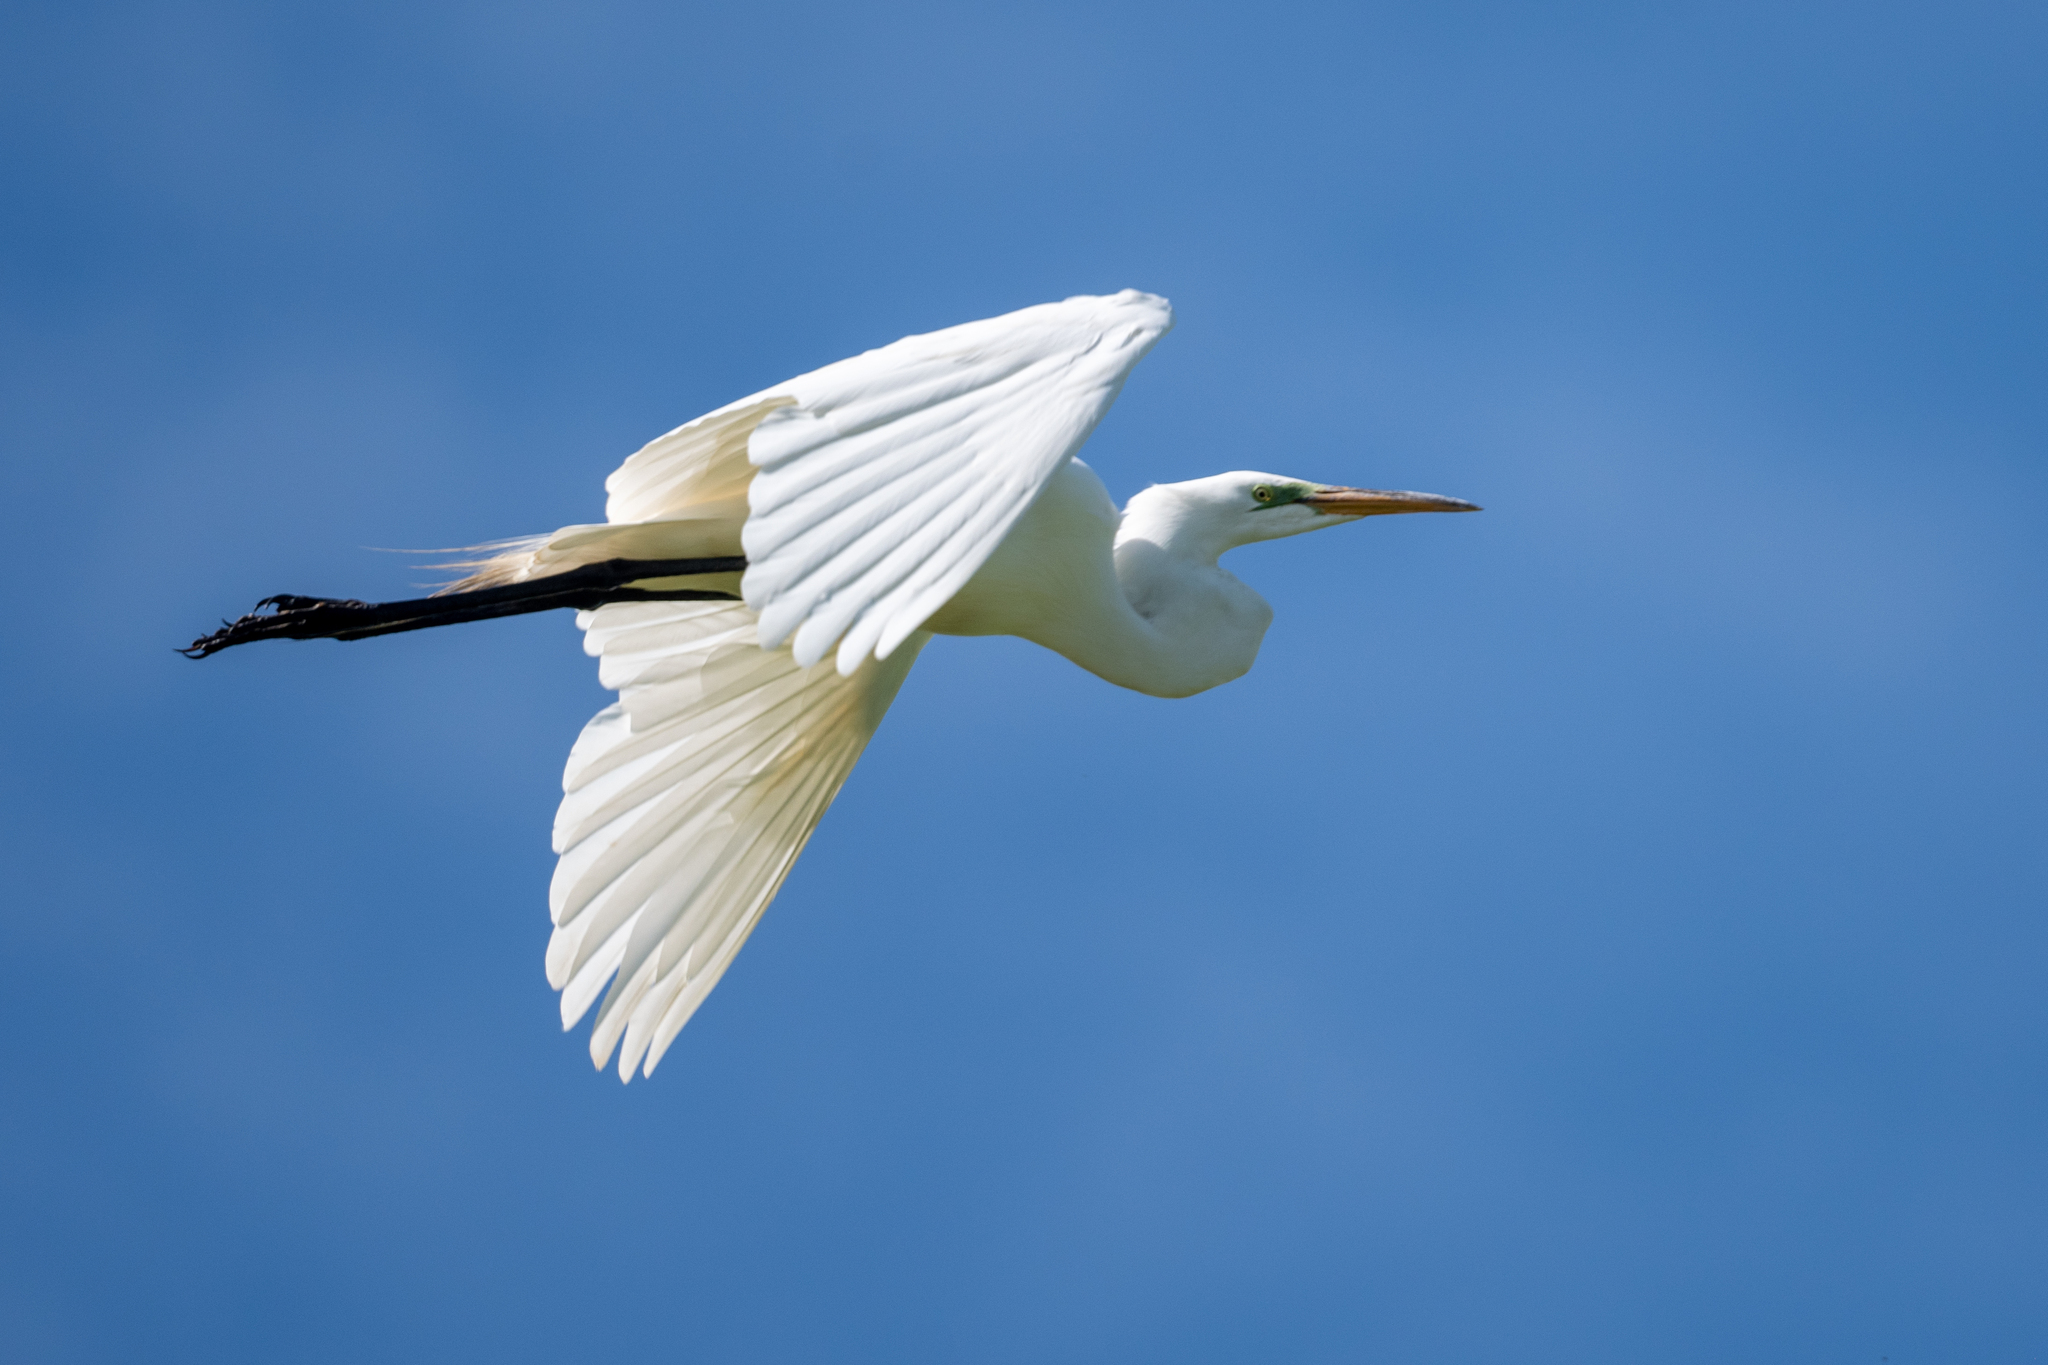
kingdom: Animalia
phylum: Chordata
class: Aves
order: Pelecaniformes
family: Ardeidae
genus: Ardea
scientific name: Ardea alba
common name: Great egret
